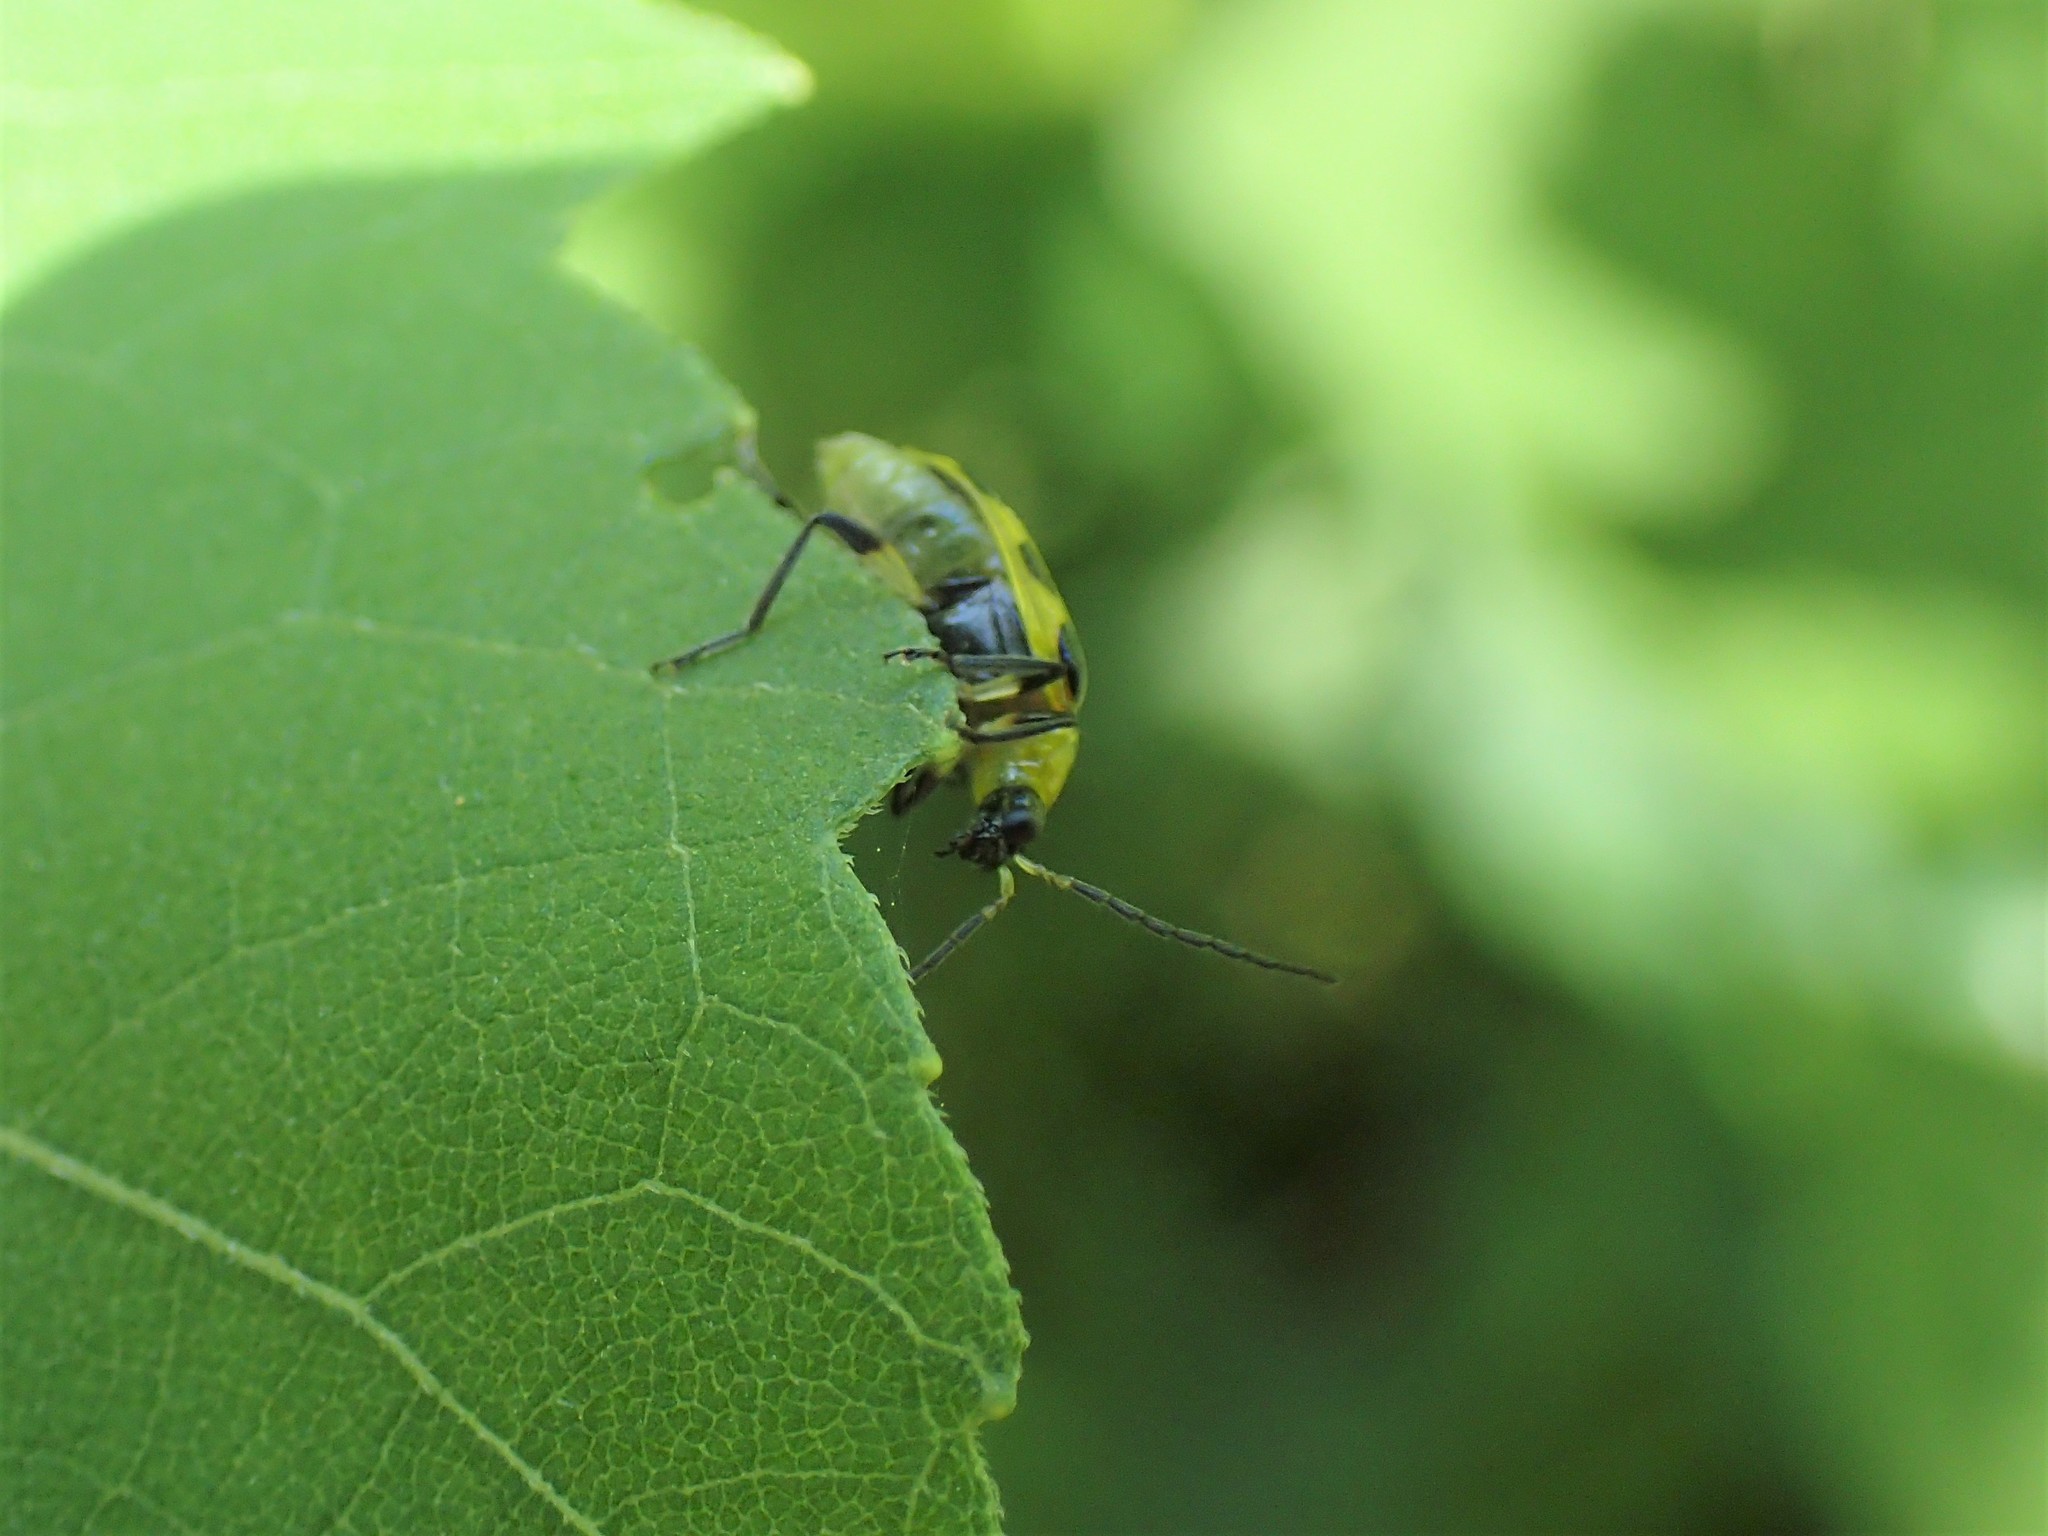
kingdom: Animalia
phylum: Arthropoda
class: Insecta
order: Coleoptera
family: Chrysomelidae
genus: Diabrotica
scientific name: Diabrotica undecimpunctata
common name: Spotted cucumber beetle
